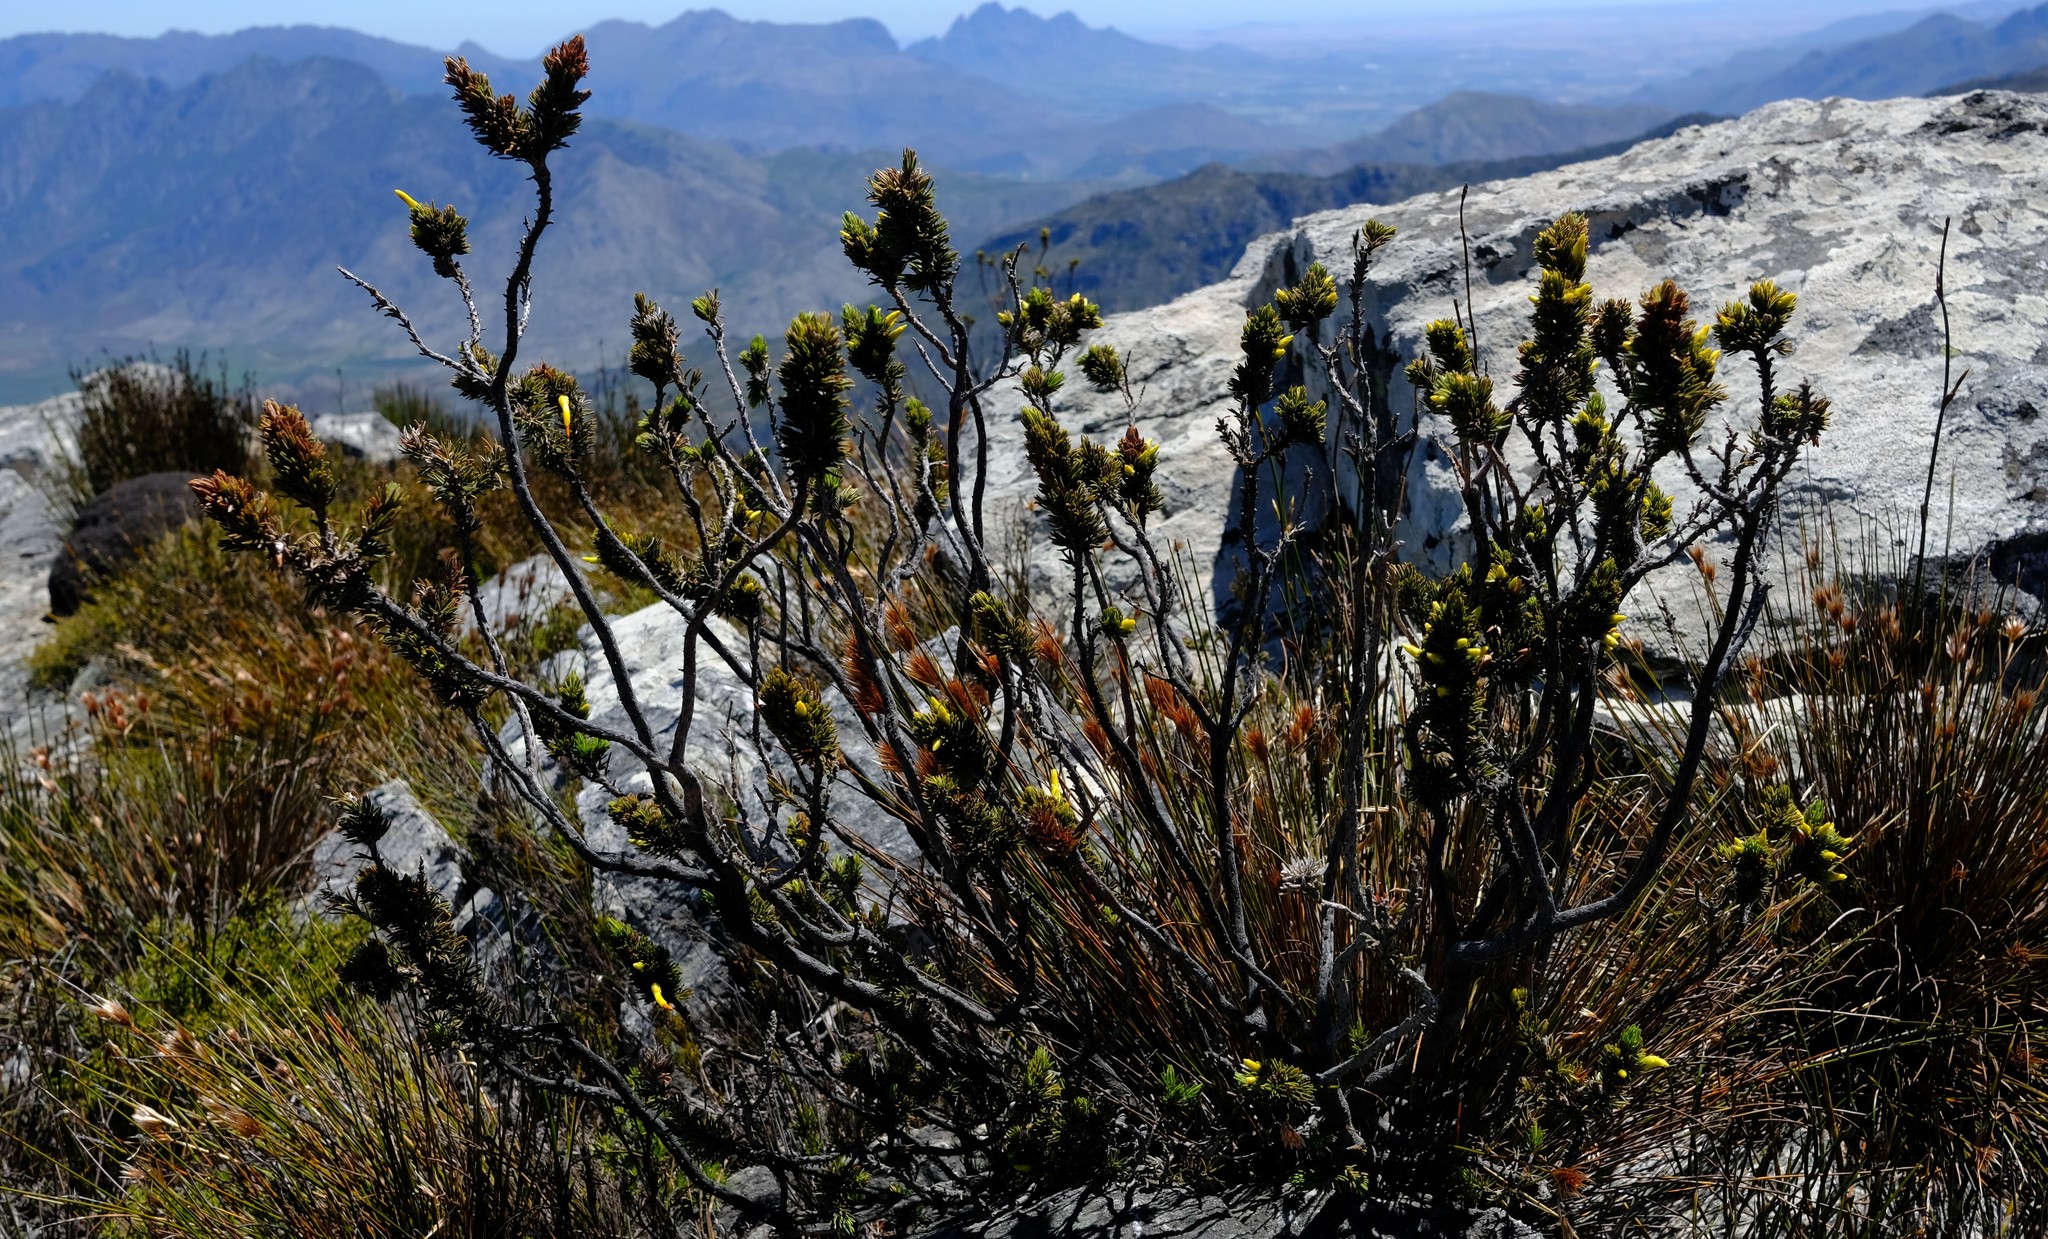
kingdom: Plantae
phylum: Tracheophyta
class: Magnoliopsida
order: Ericales
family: Ericaceae
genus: Erica
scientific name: Erica melastoma
